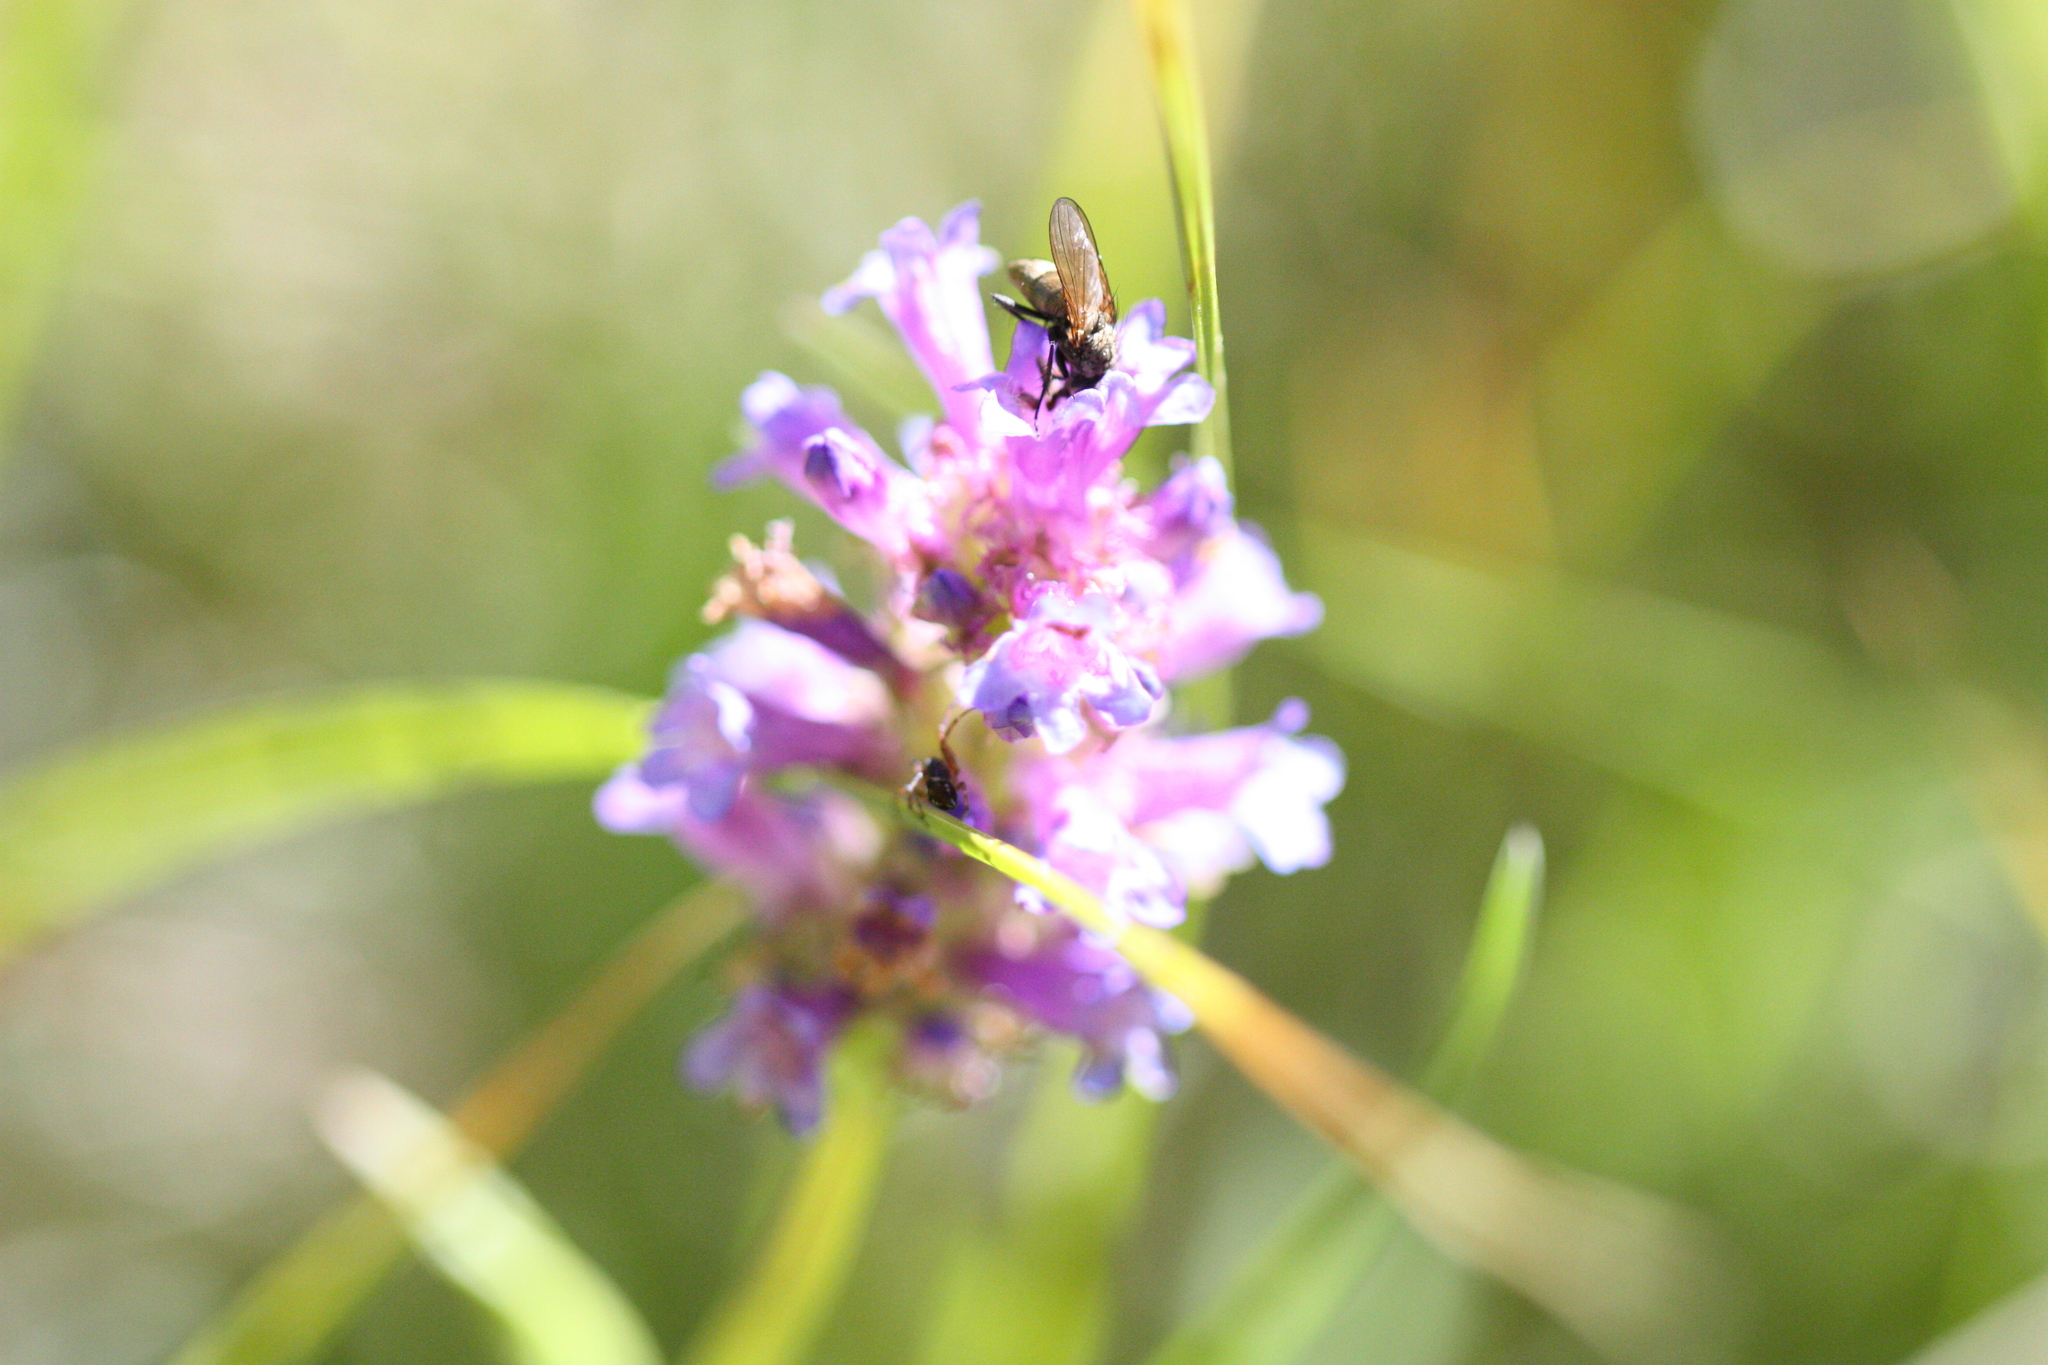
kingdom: Plantae
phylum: Tracheophyta
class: Magnoliopsida
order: Lamiales
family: Plantaginaceae
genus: Penstemon
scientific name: Penstemon rydbergii
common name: Rydberg's beardtongue
